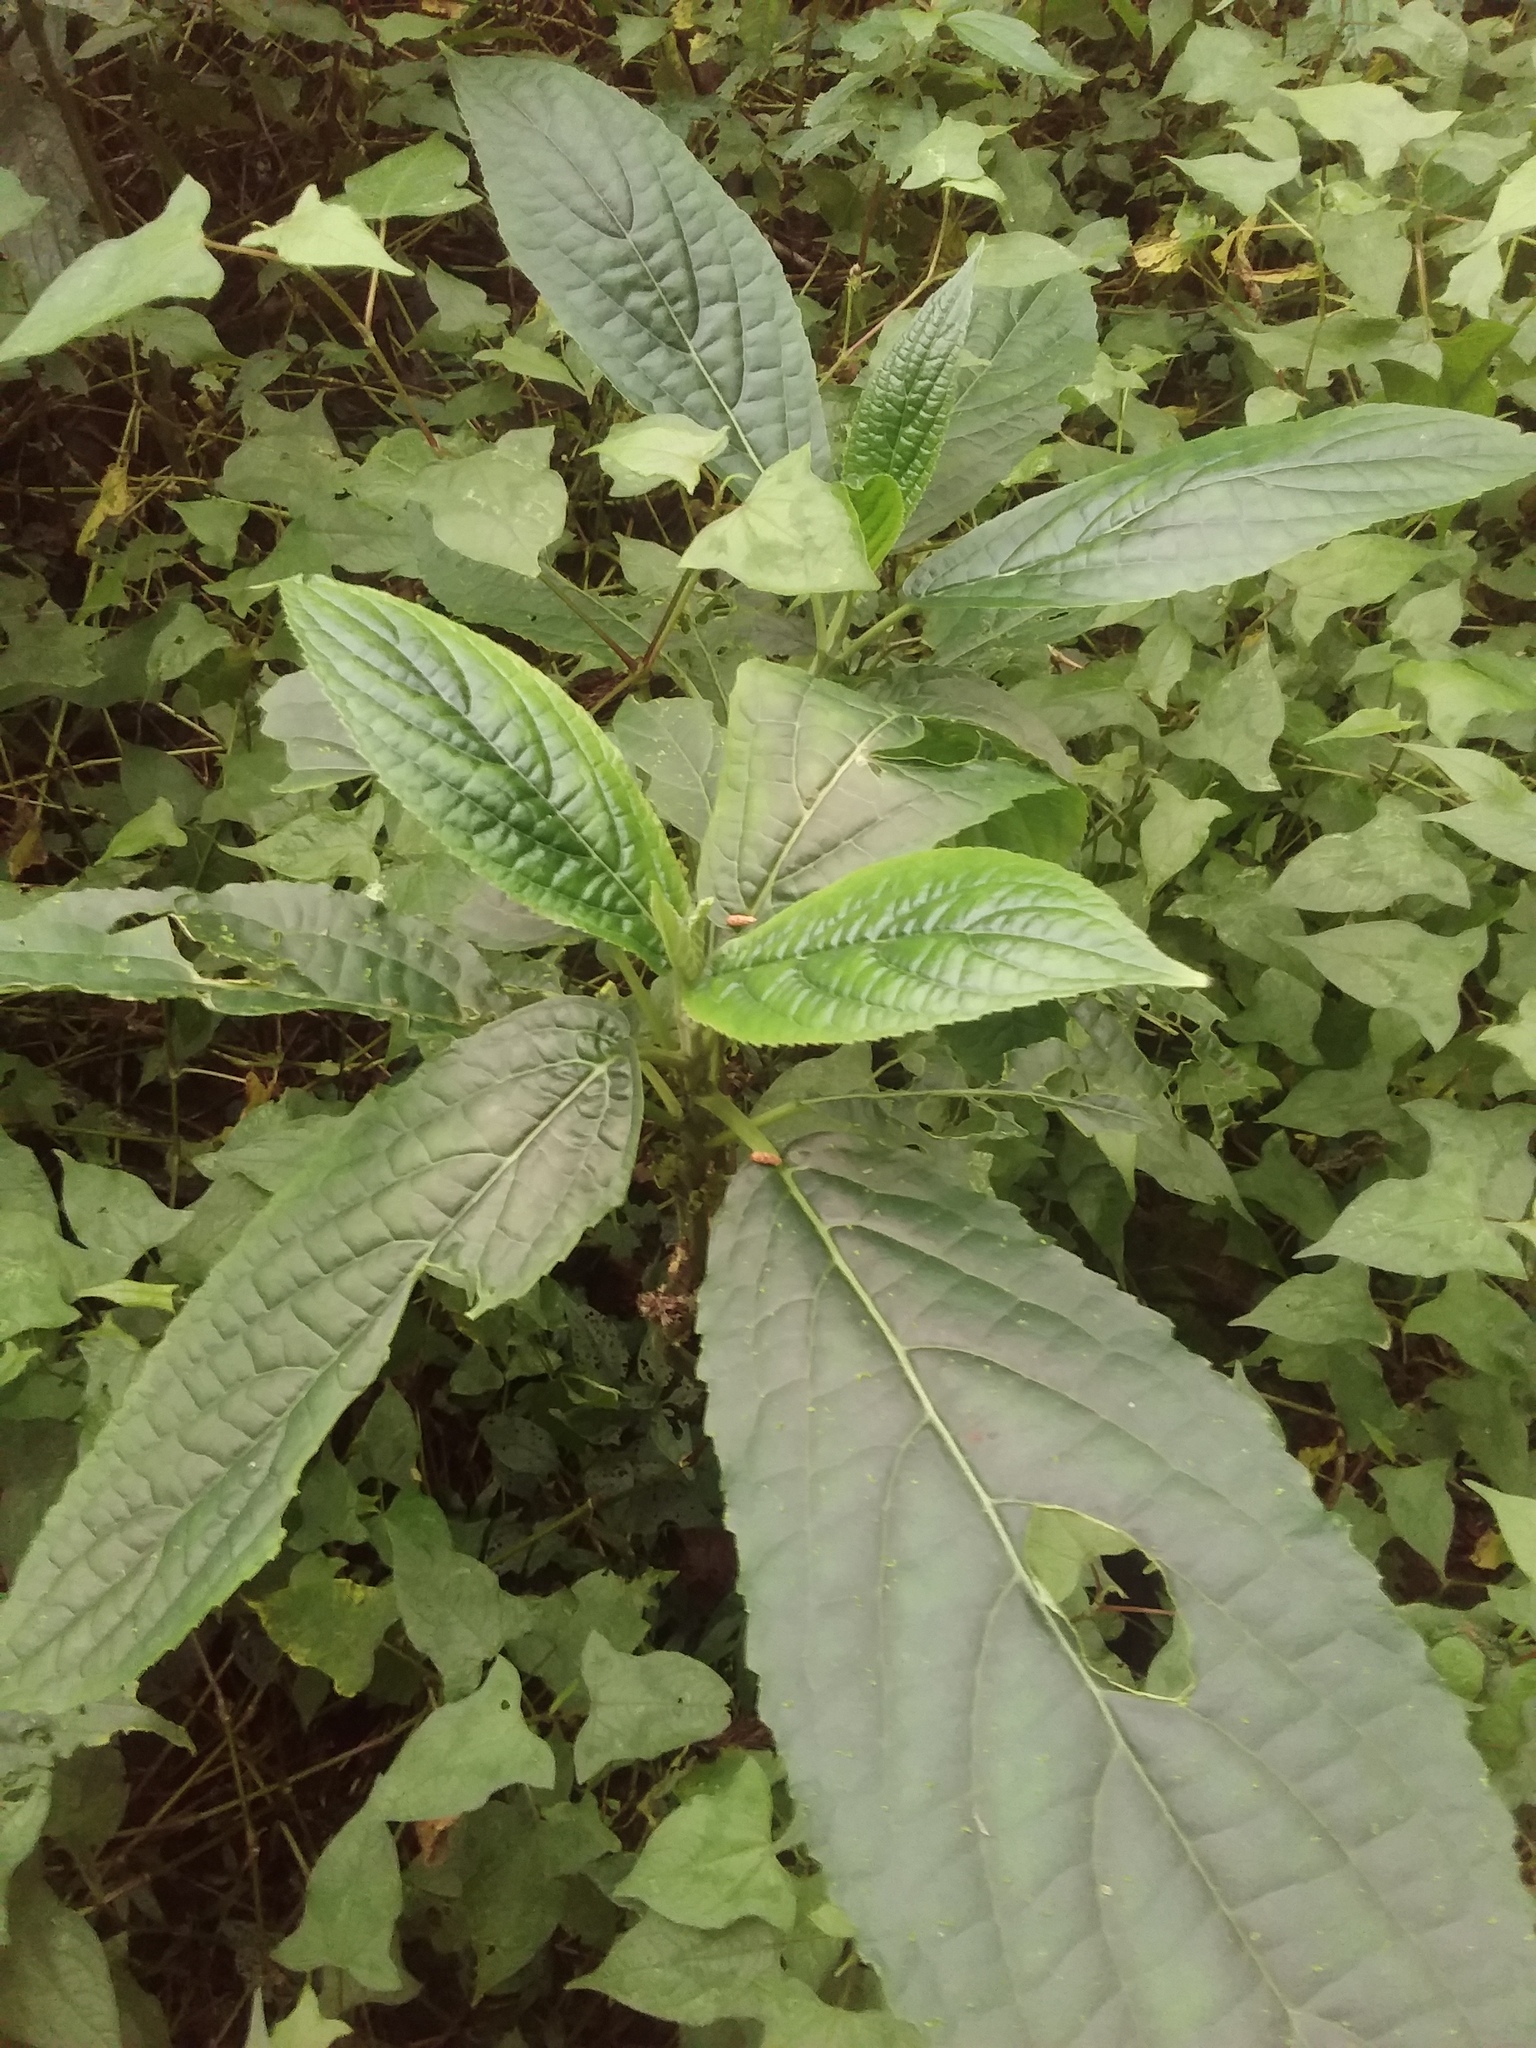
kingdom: Plantae
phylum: Tracheophyta
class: Magnoliopsida
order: Lamiales
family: Lamiaceae
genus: Paraphlomis
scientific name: Paraphlomis javanica
